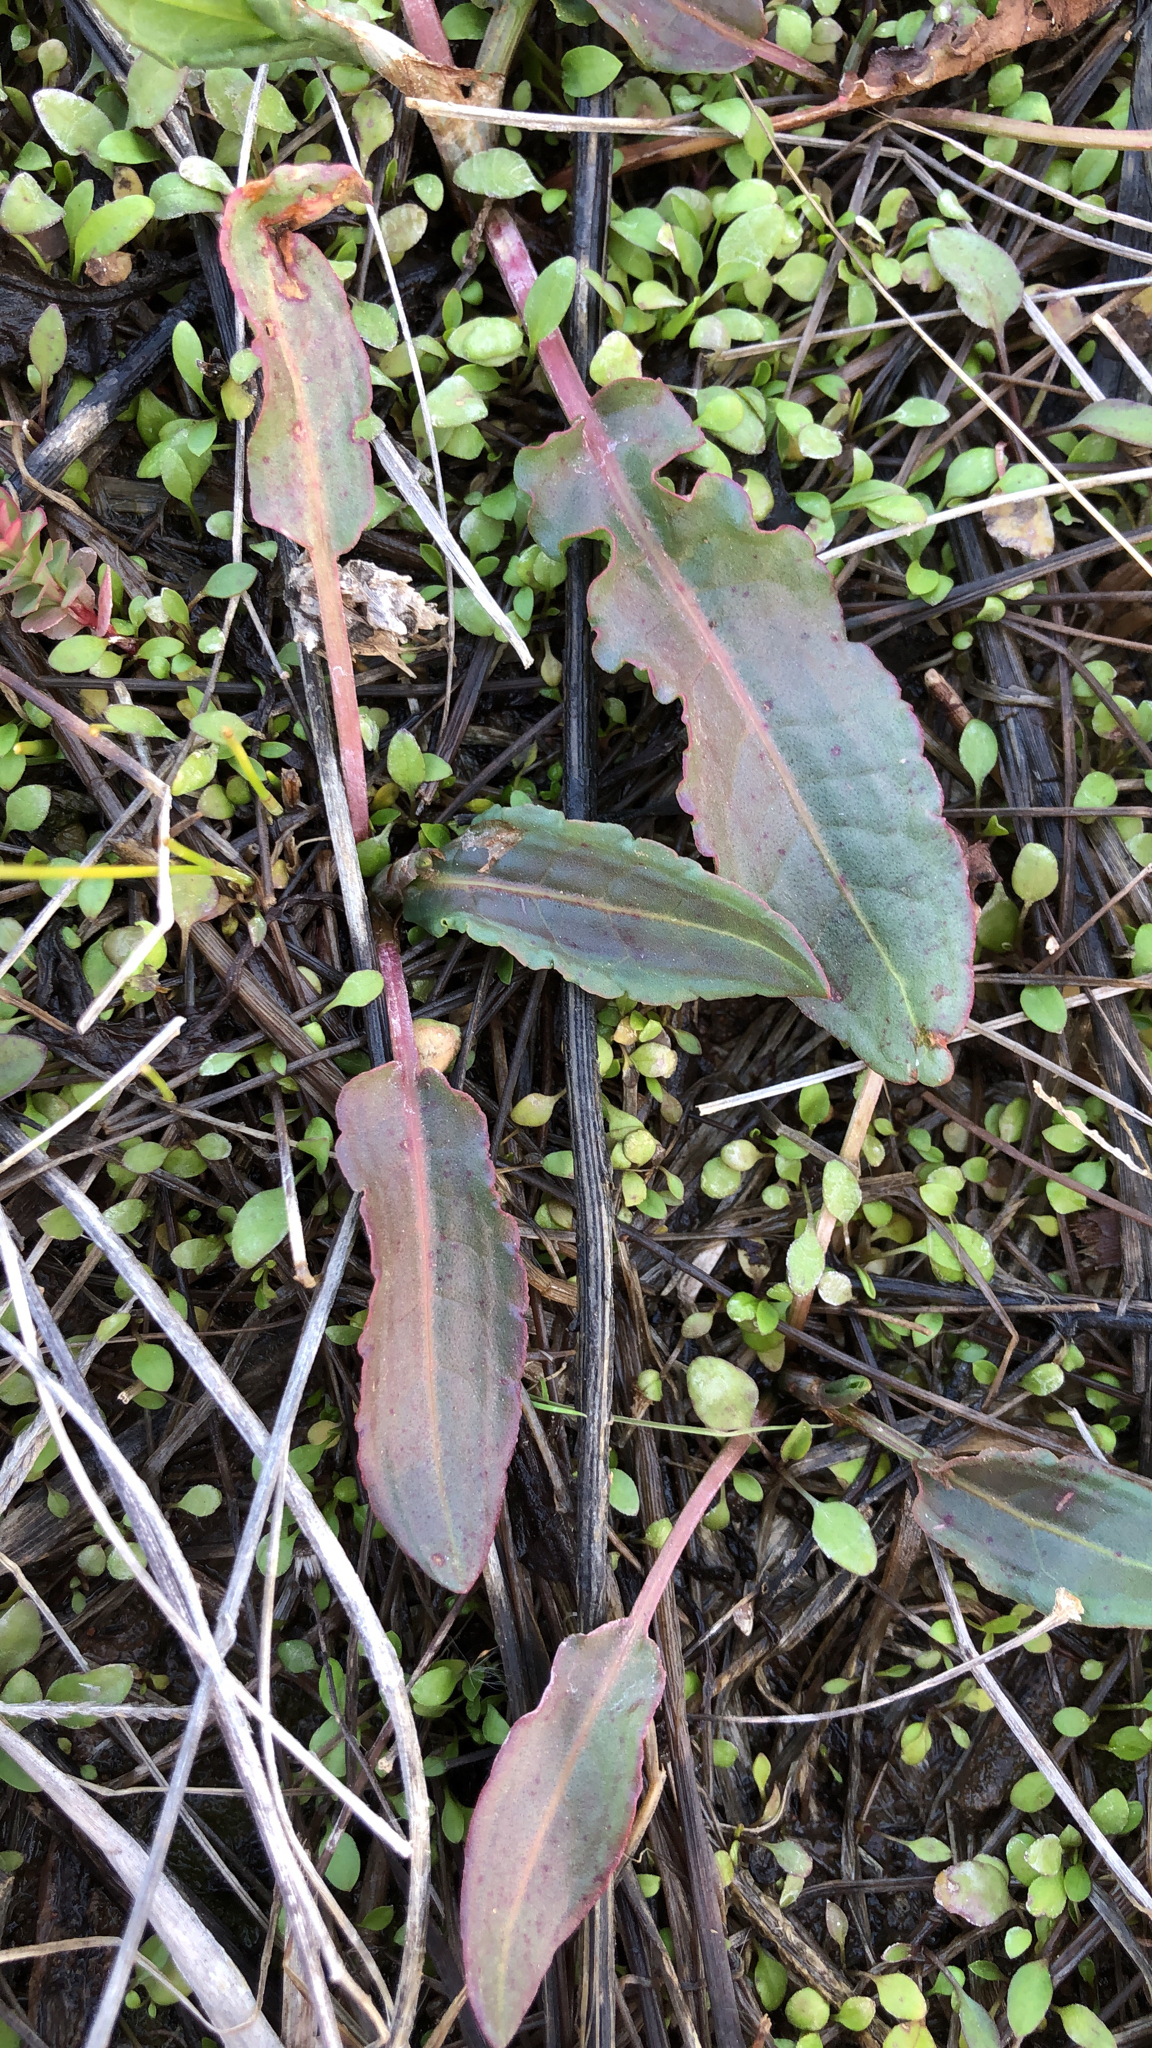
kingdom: Plantae
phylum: Tracheophyta
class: Magnoliopsida
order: Caryophyllales
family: Polygonaceae
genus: Rumex
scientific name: Rumex crispus
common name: Curled dock
